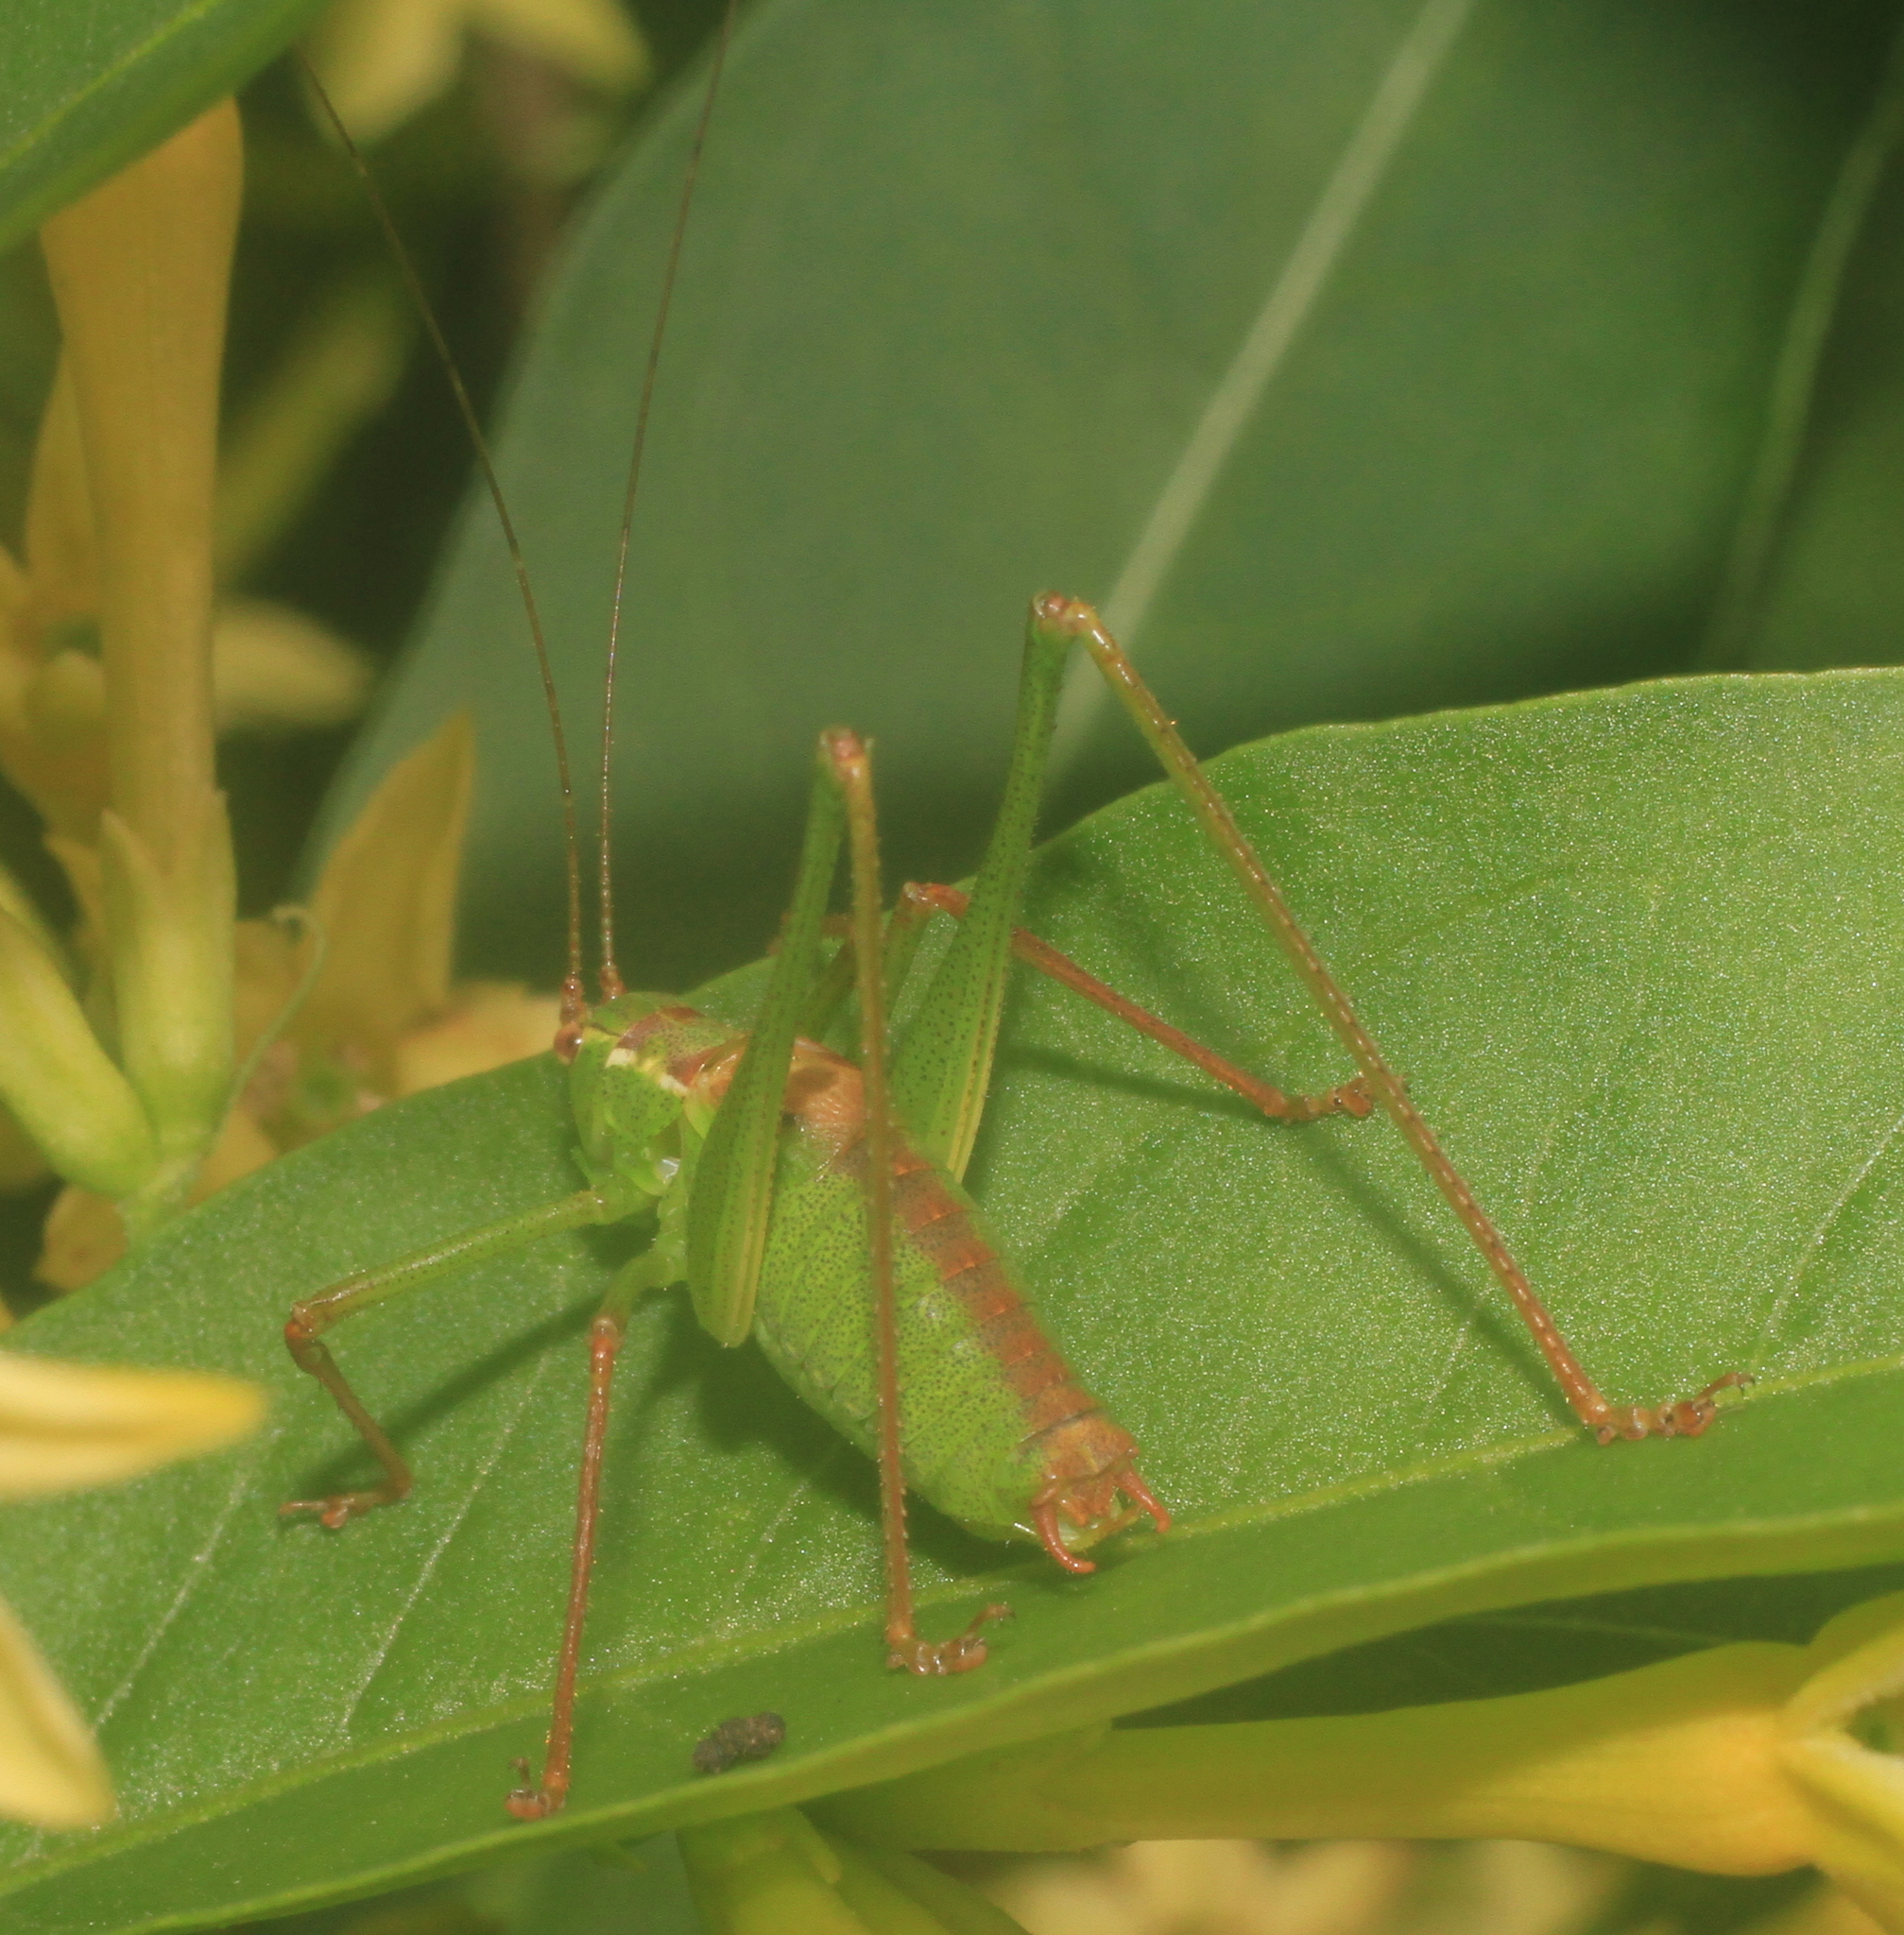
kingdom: Animalia
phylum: Arthropoda
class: Insecta
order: Orthoptera
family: Tettigoniidae
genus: Leptophyes
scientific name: Leptophyes punctatissima
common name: Speckled bush-cricket
